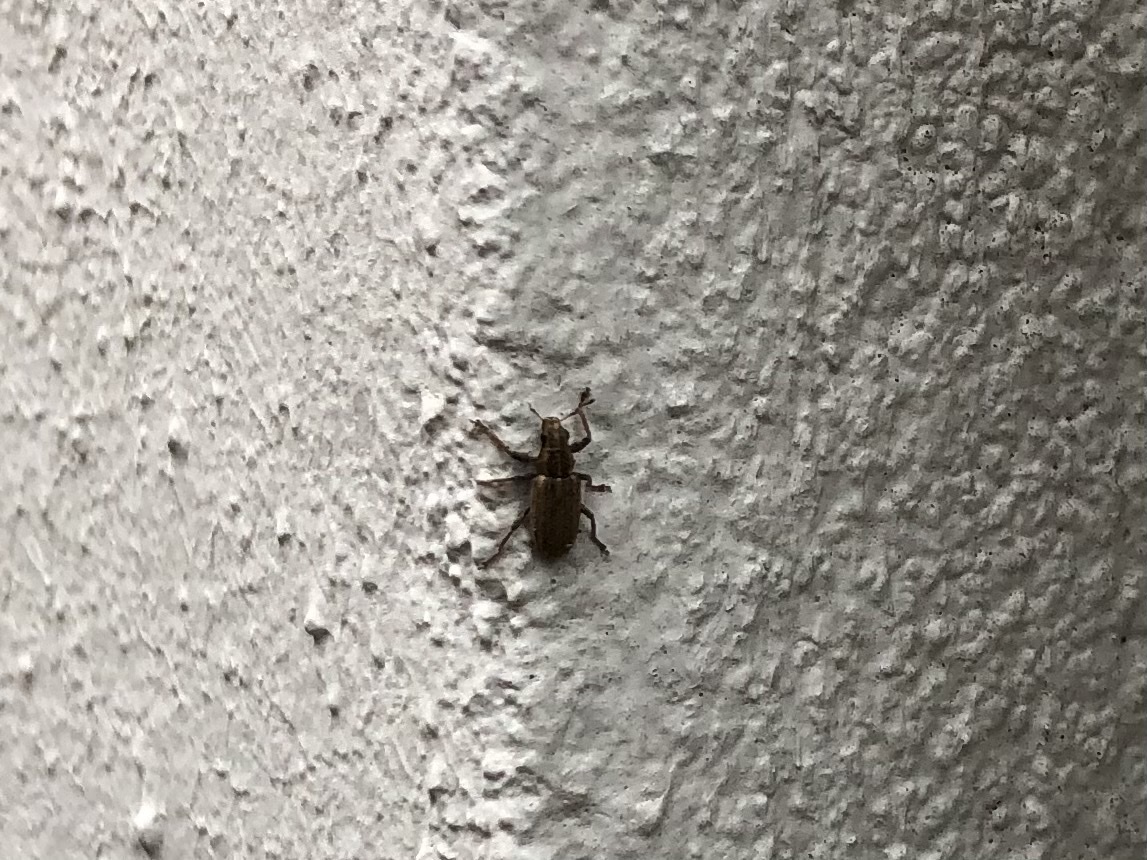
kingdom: Animalia
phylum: Arthropoda
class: Insecta
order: Coleoptera
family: Curculionidae
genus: Sitona
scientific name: Sitona lineatus
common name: Weevil
